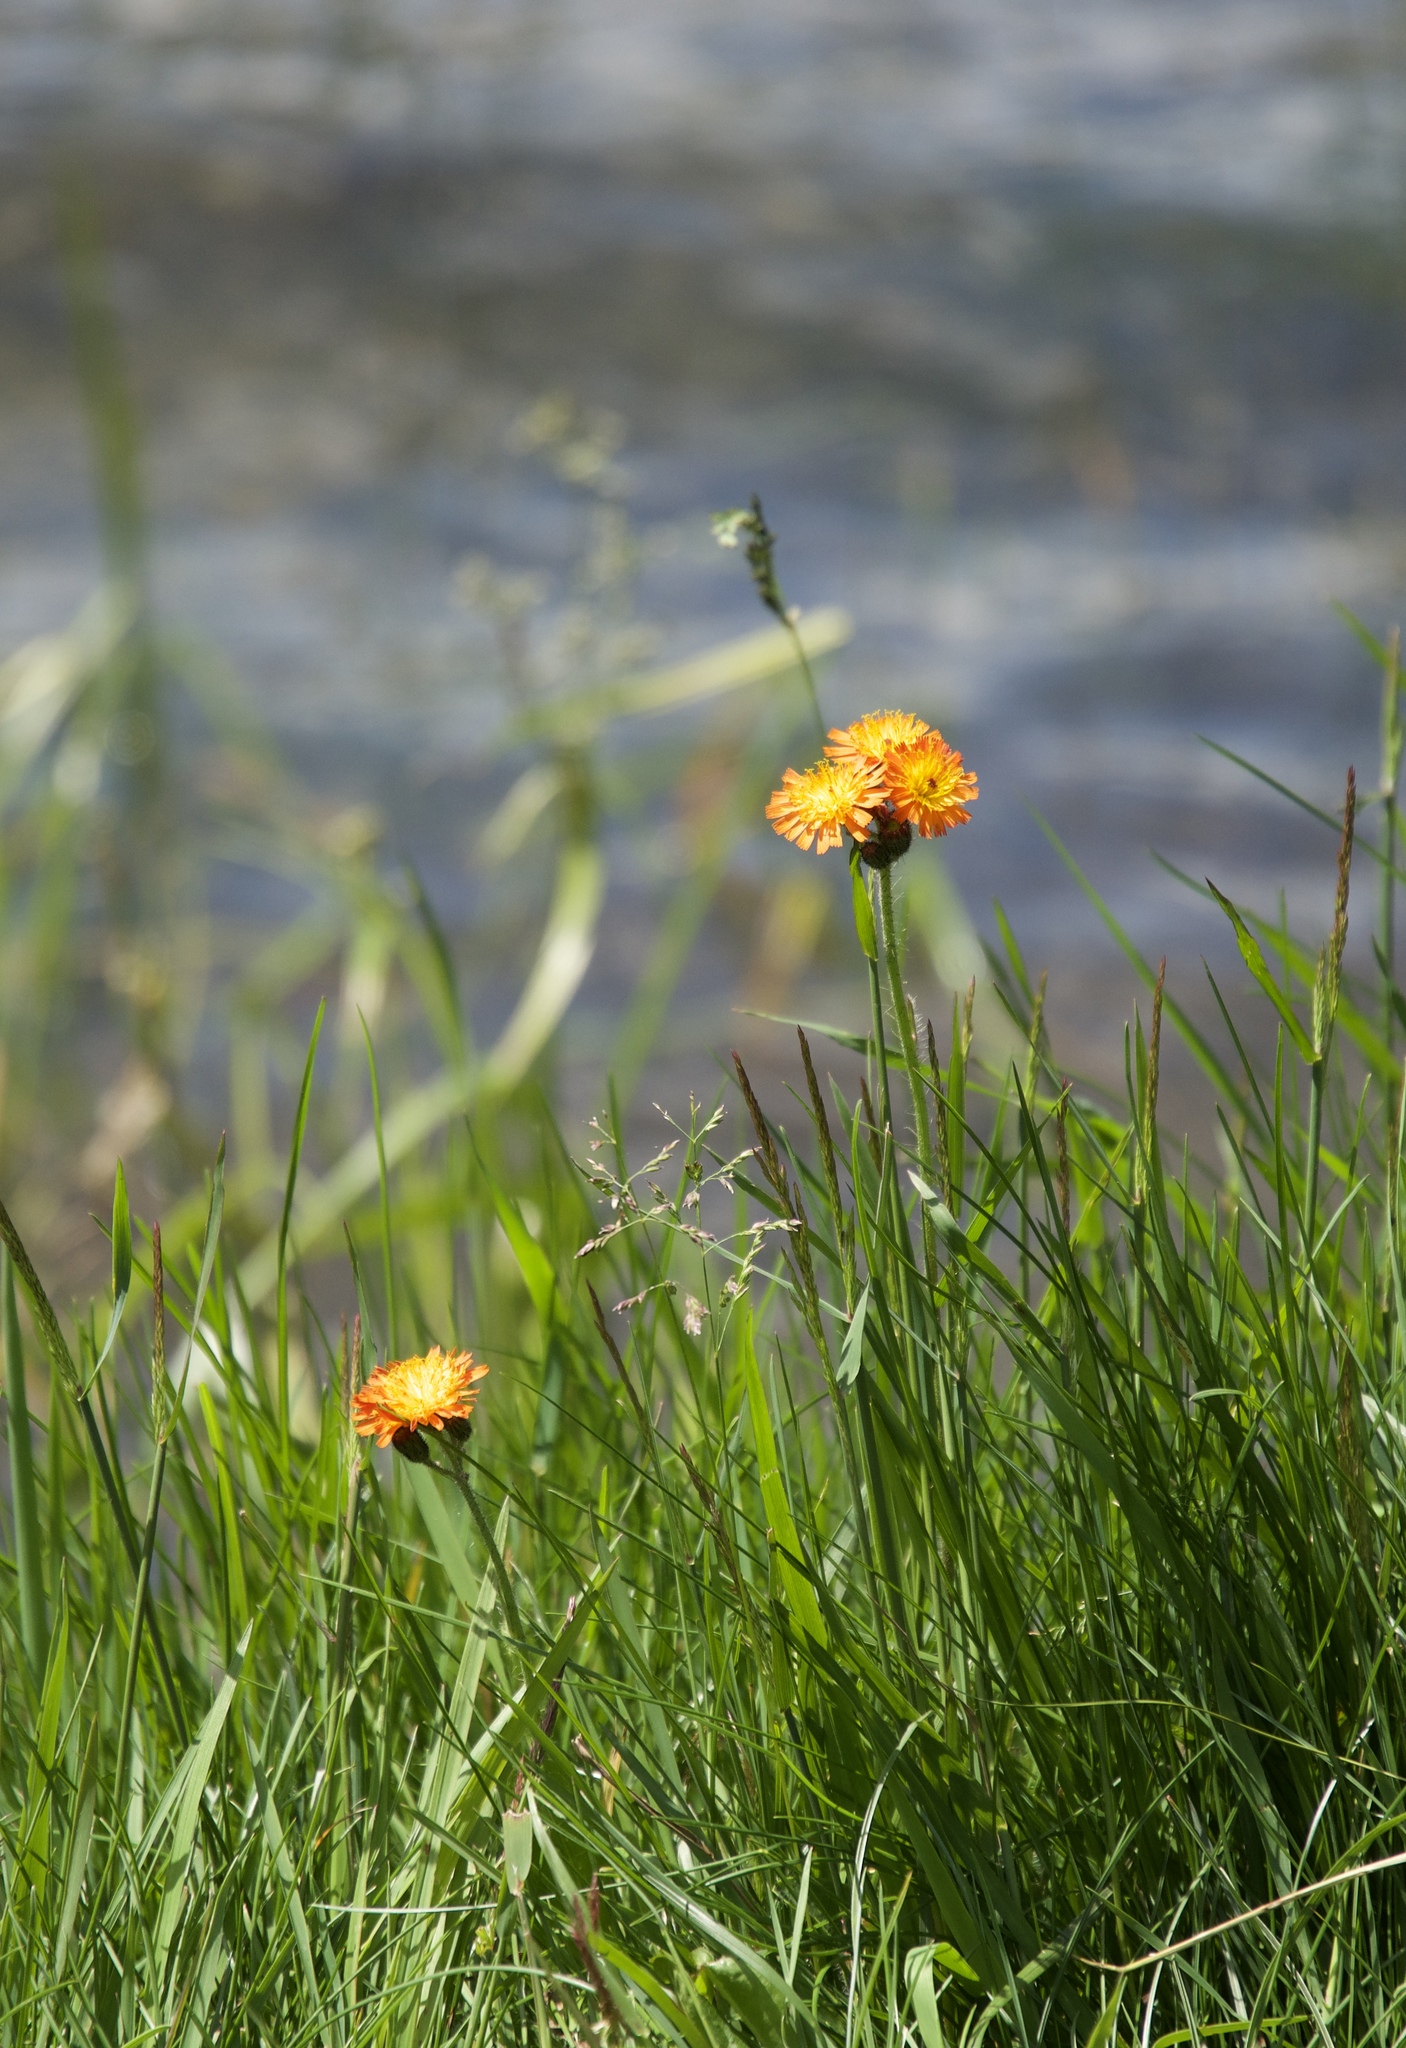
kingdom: Plantae
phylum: Tracheophyta
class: Magnoliopsida
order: Asterales
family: Asteraceae
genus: Pilosella
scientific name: Pilosella aurantiaca
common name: Fox-and-cubs
